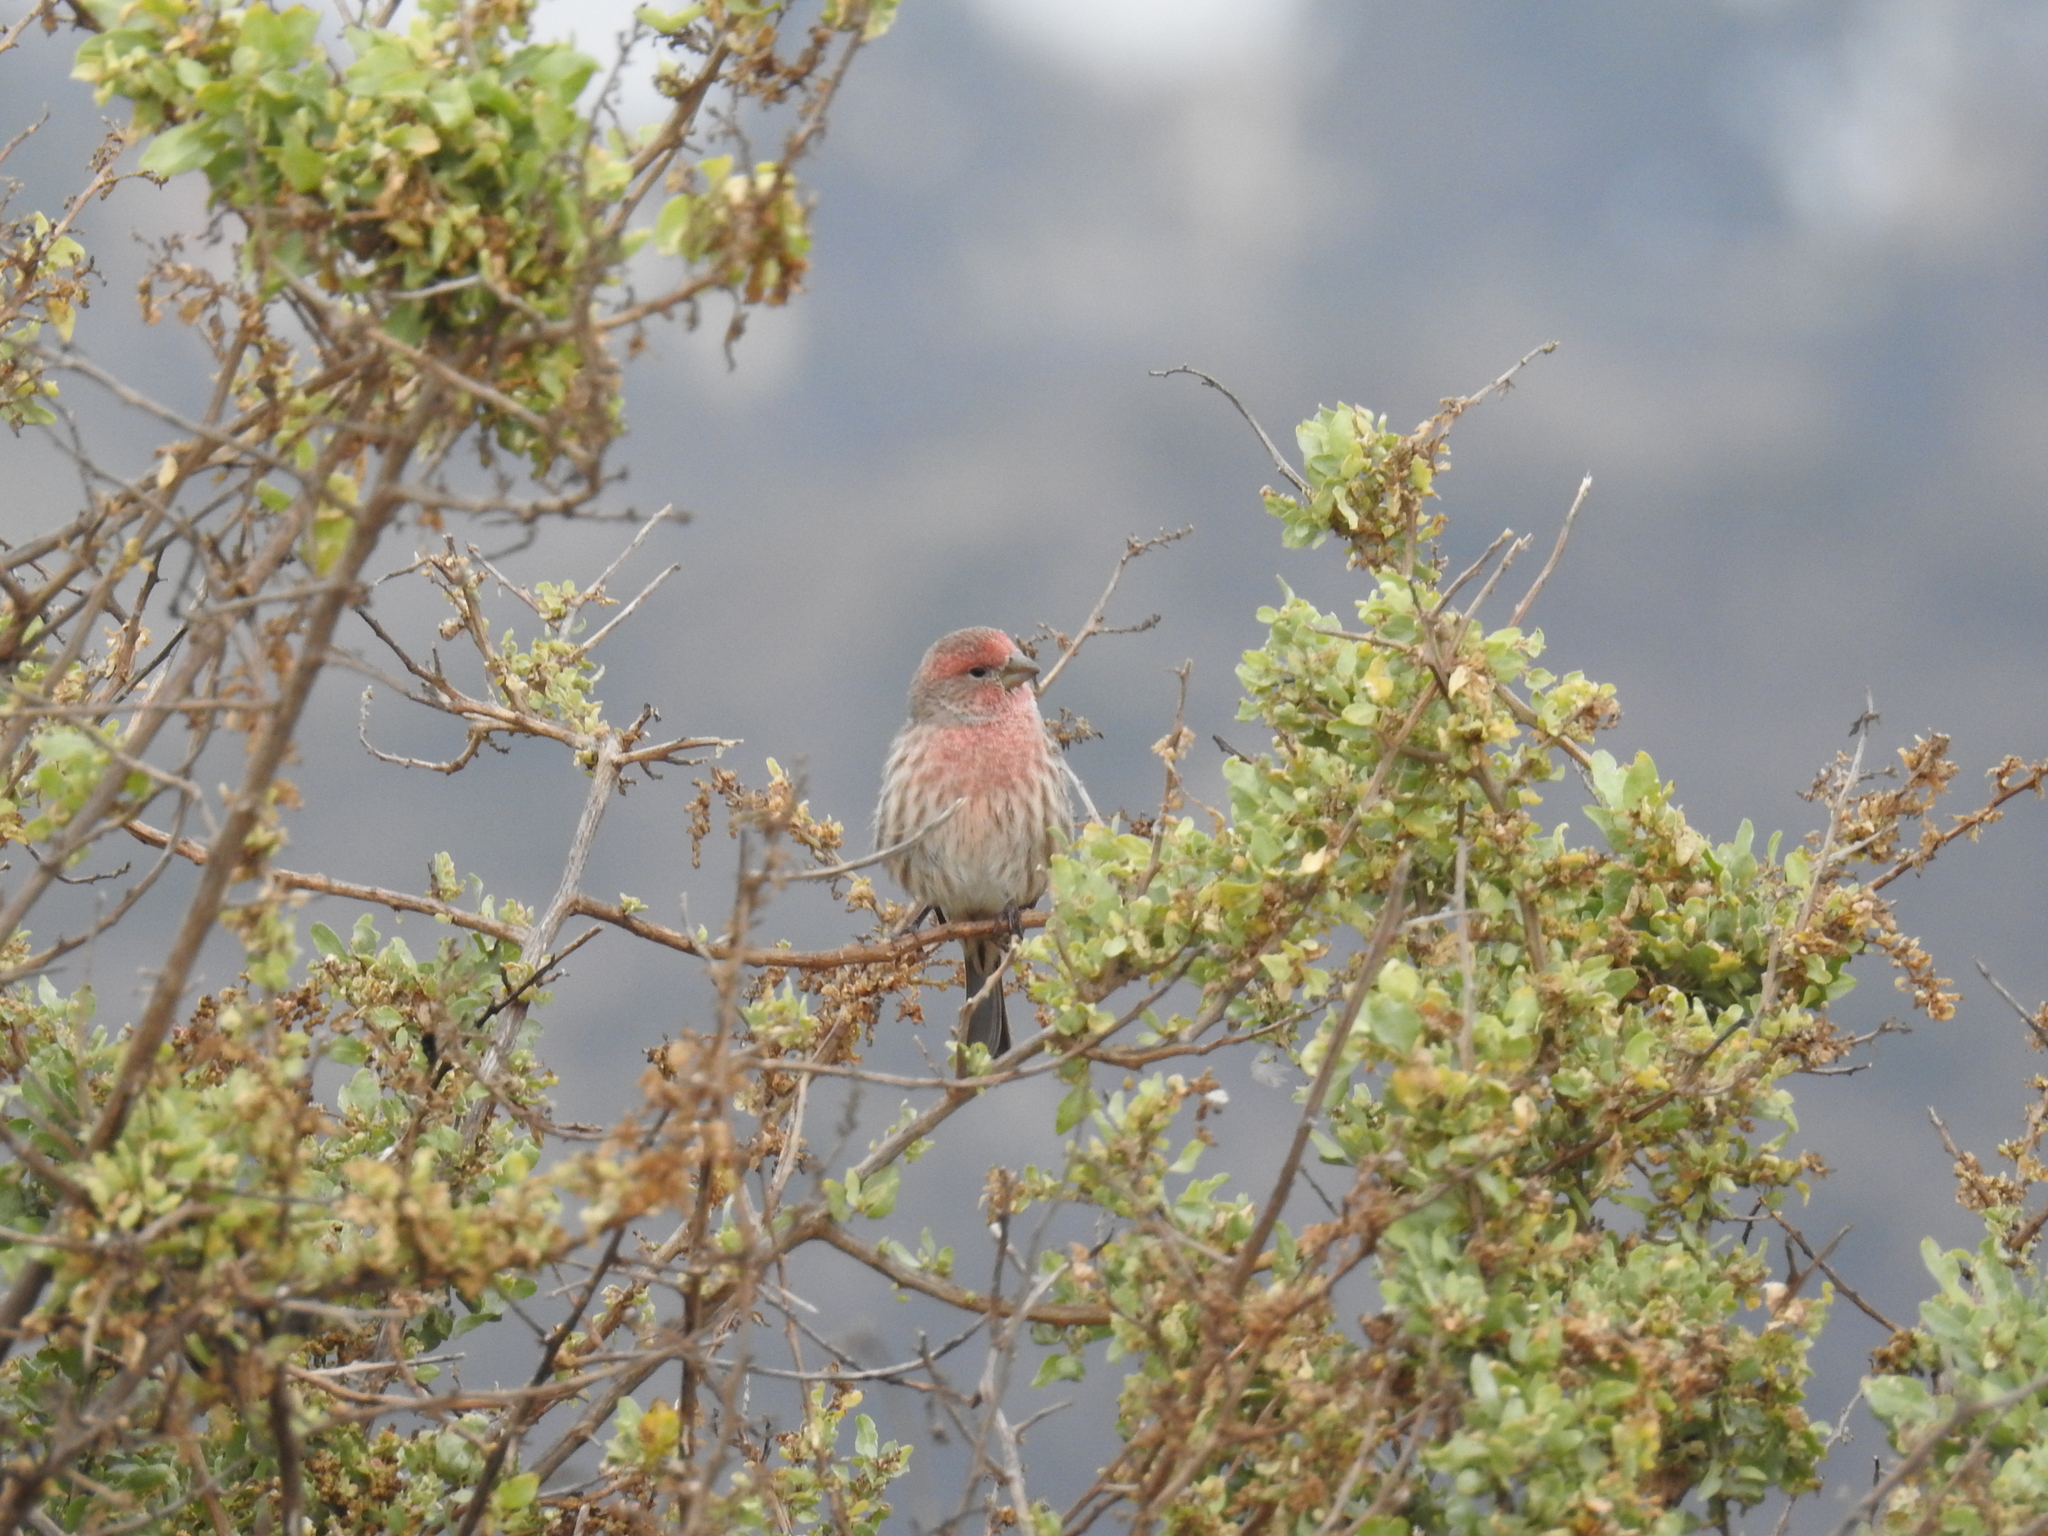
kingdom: Animalia
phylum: Chordata
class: Aves
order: Passeriformes
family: Fringillidae
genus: Haemorhous
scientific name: Haemorhous mexicanus
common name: House finch
